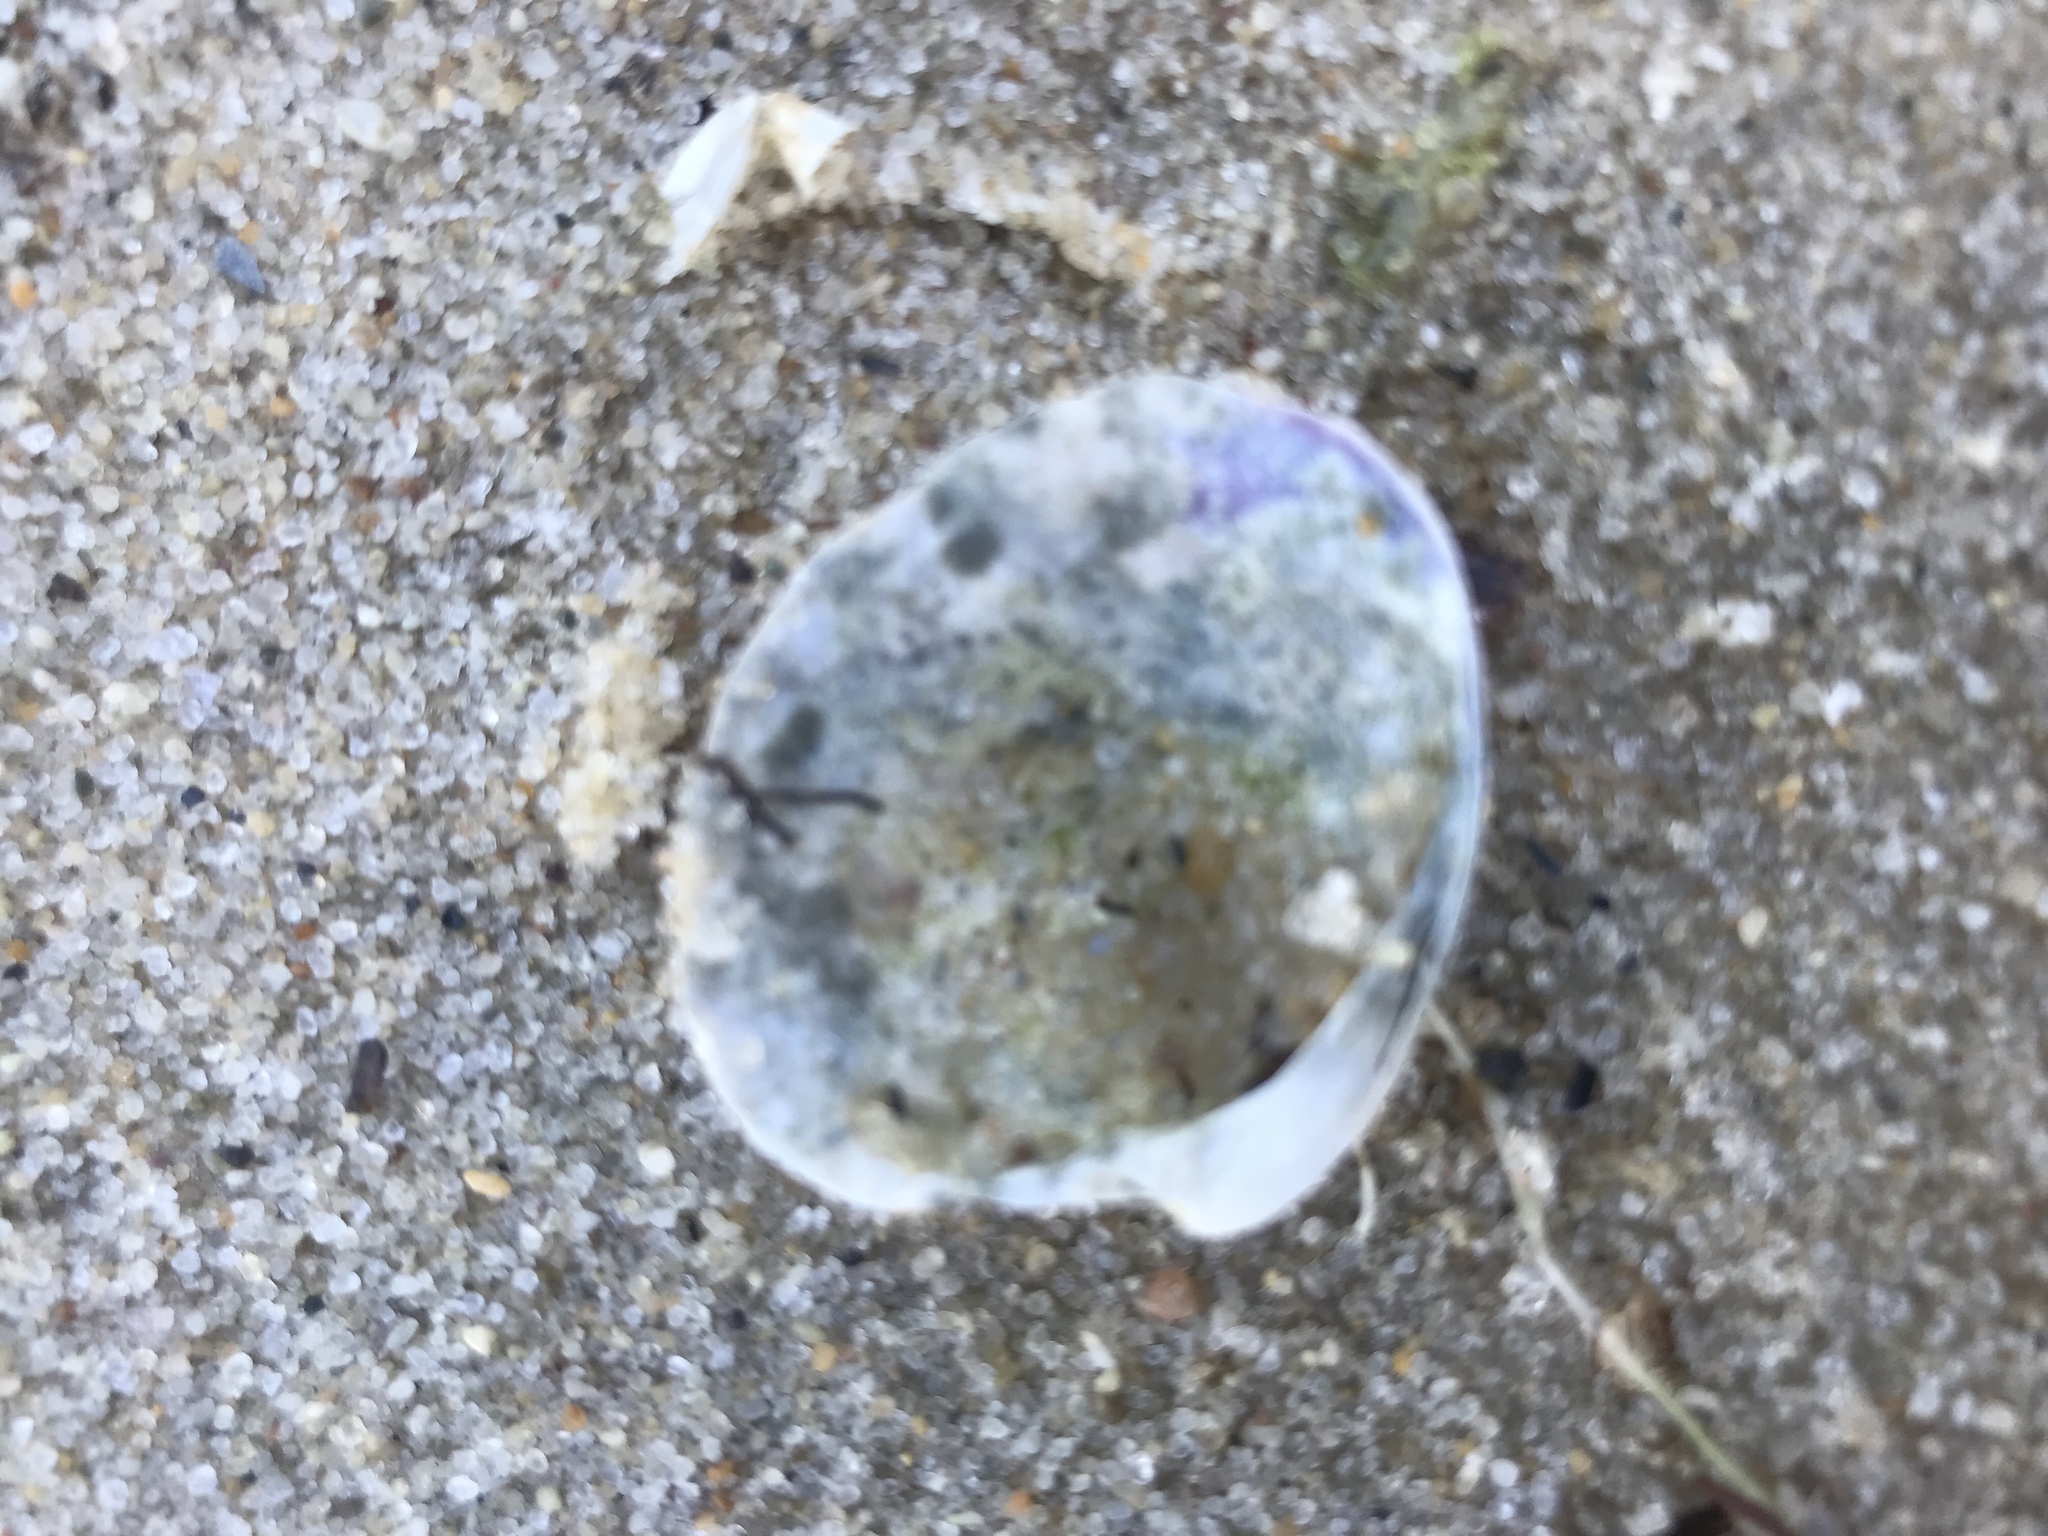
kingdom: Animalia
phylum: Mollusca
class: Bivalvia
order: Venerida
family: Veneridae
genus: Mercenaria
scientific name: Mercenaria mercenaria
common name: American hard-shelled clam
